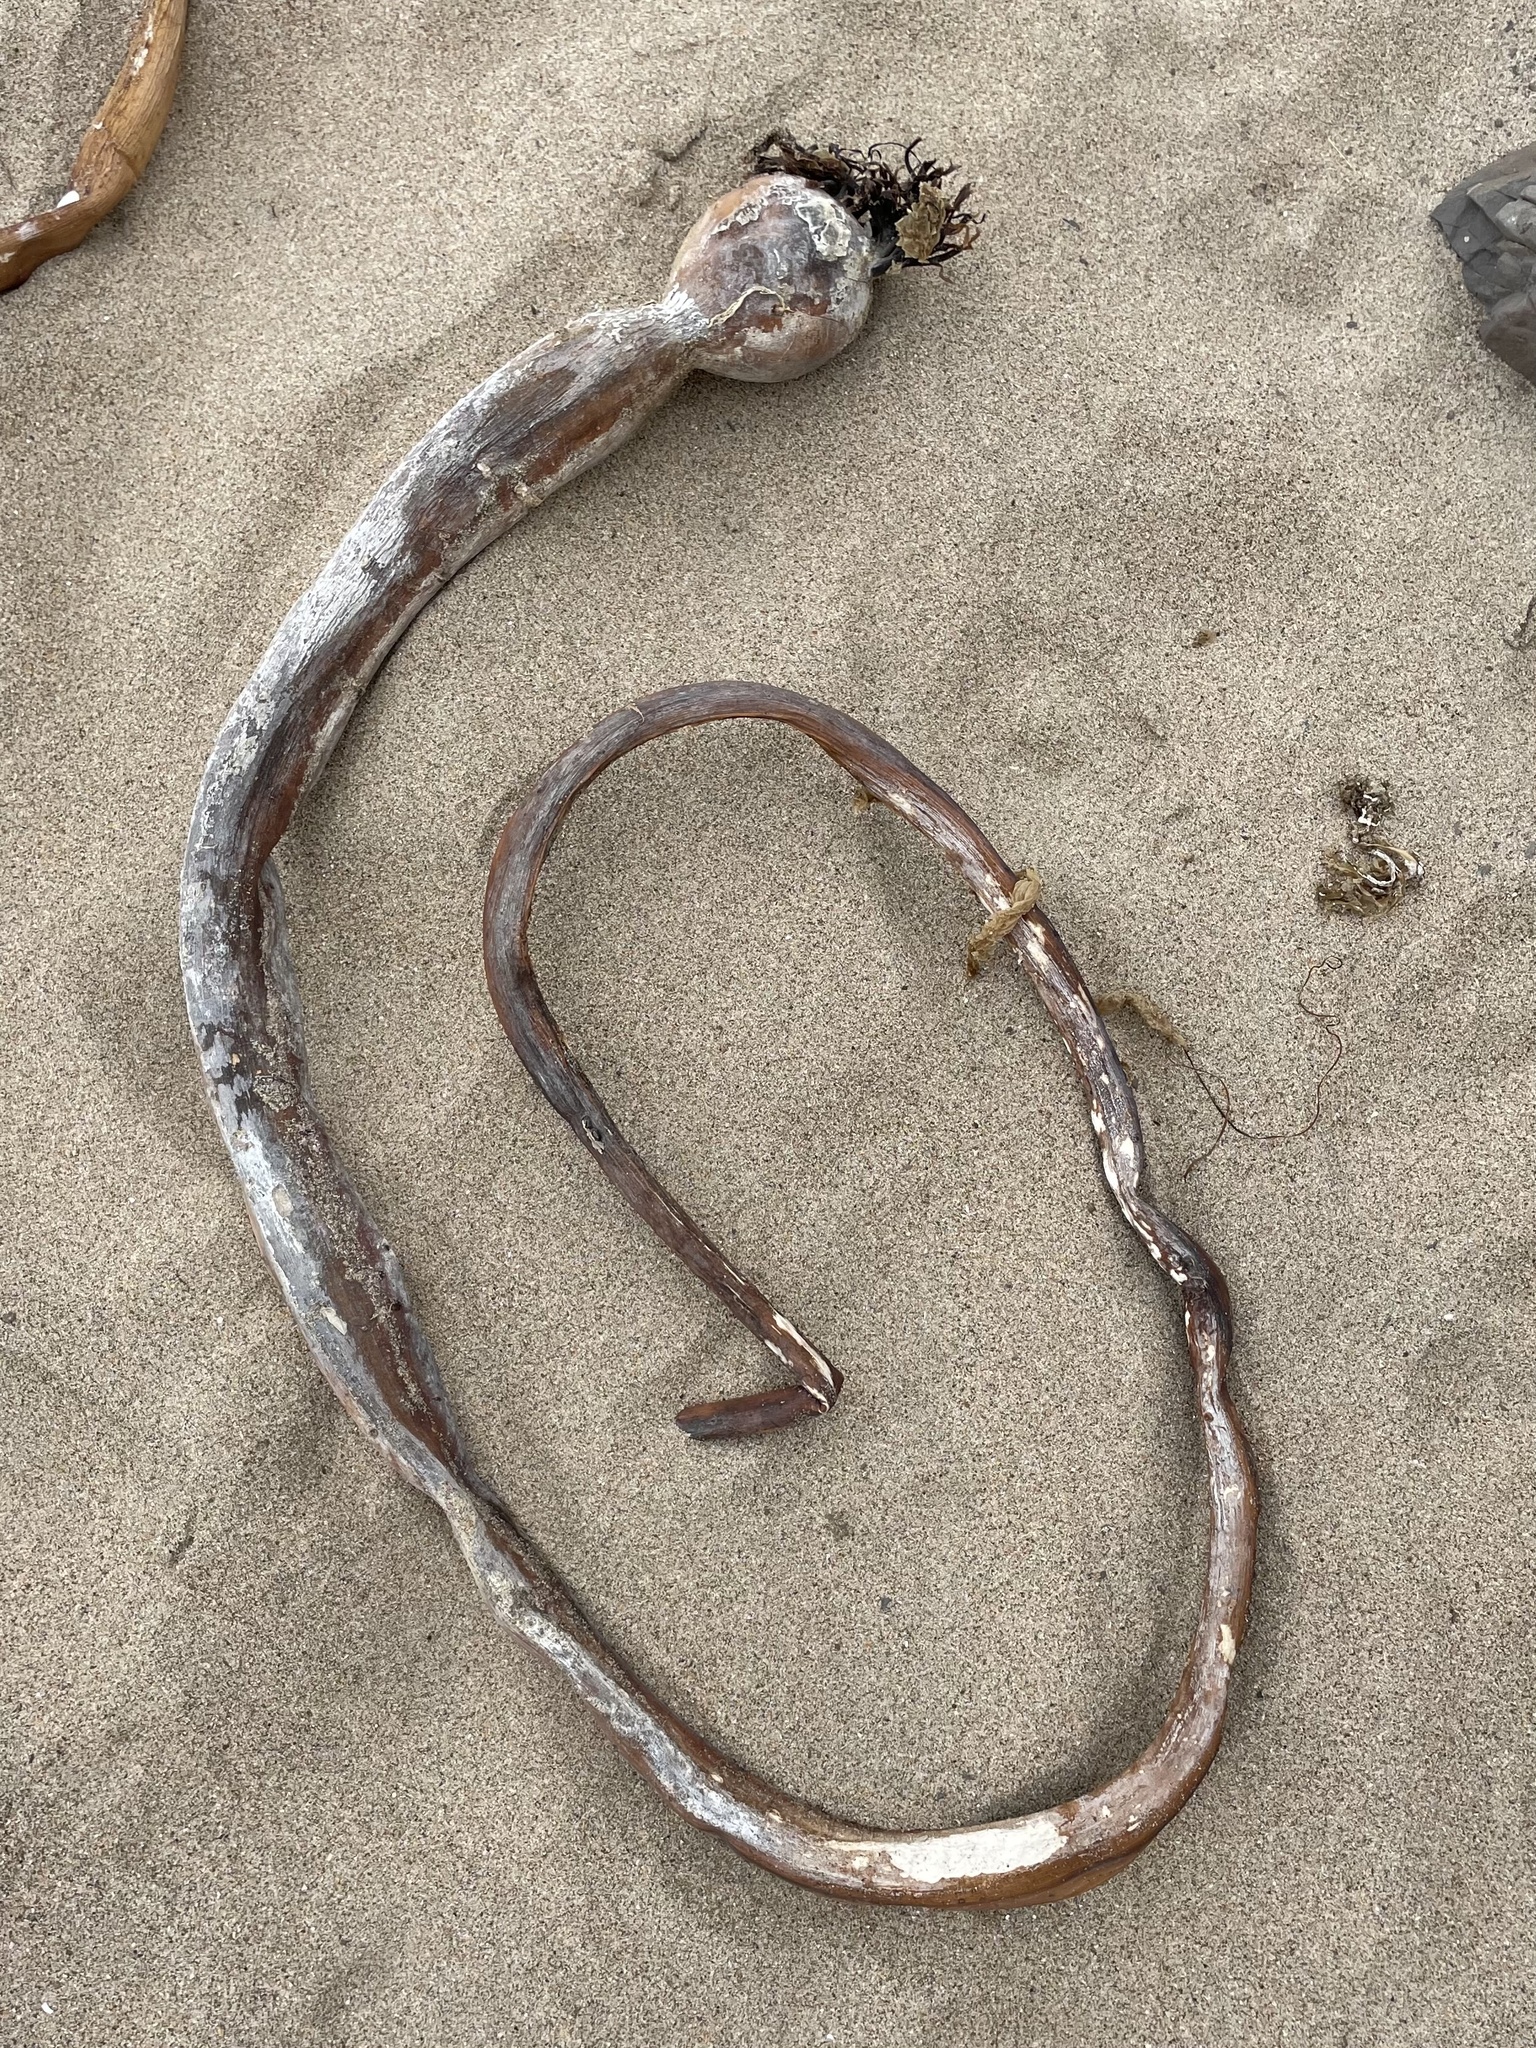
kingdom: Chromista
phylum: Ochrophyta
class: Phaeophyceae
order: Laminariales
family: Laminariaceae
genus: Nereocystis
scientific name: Nereocystis luetkeana
